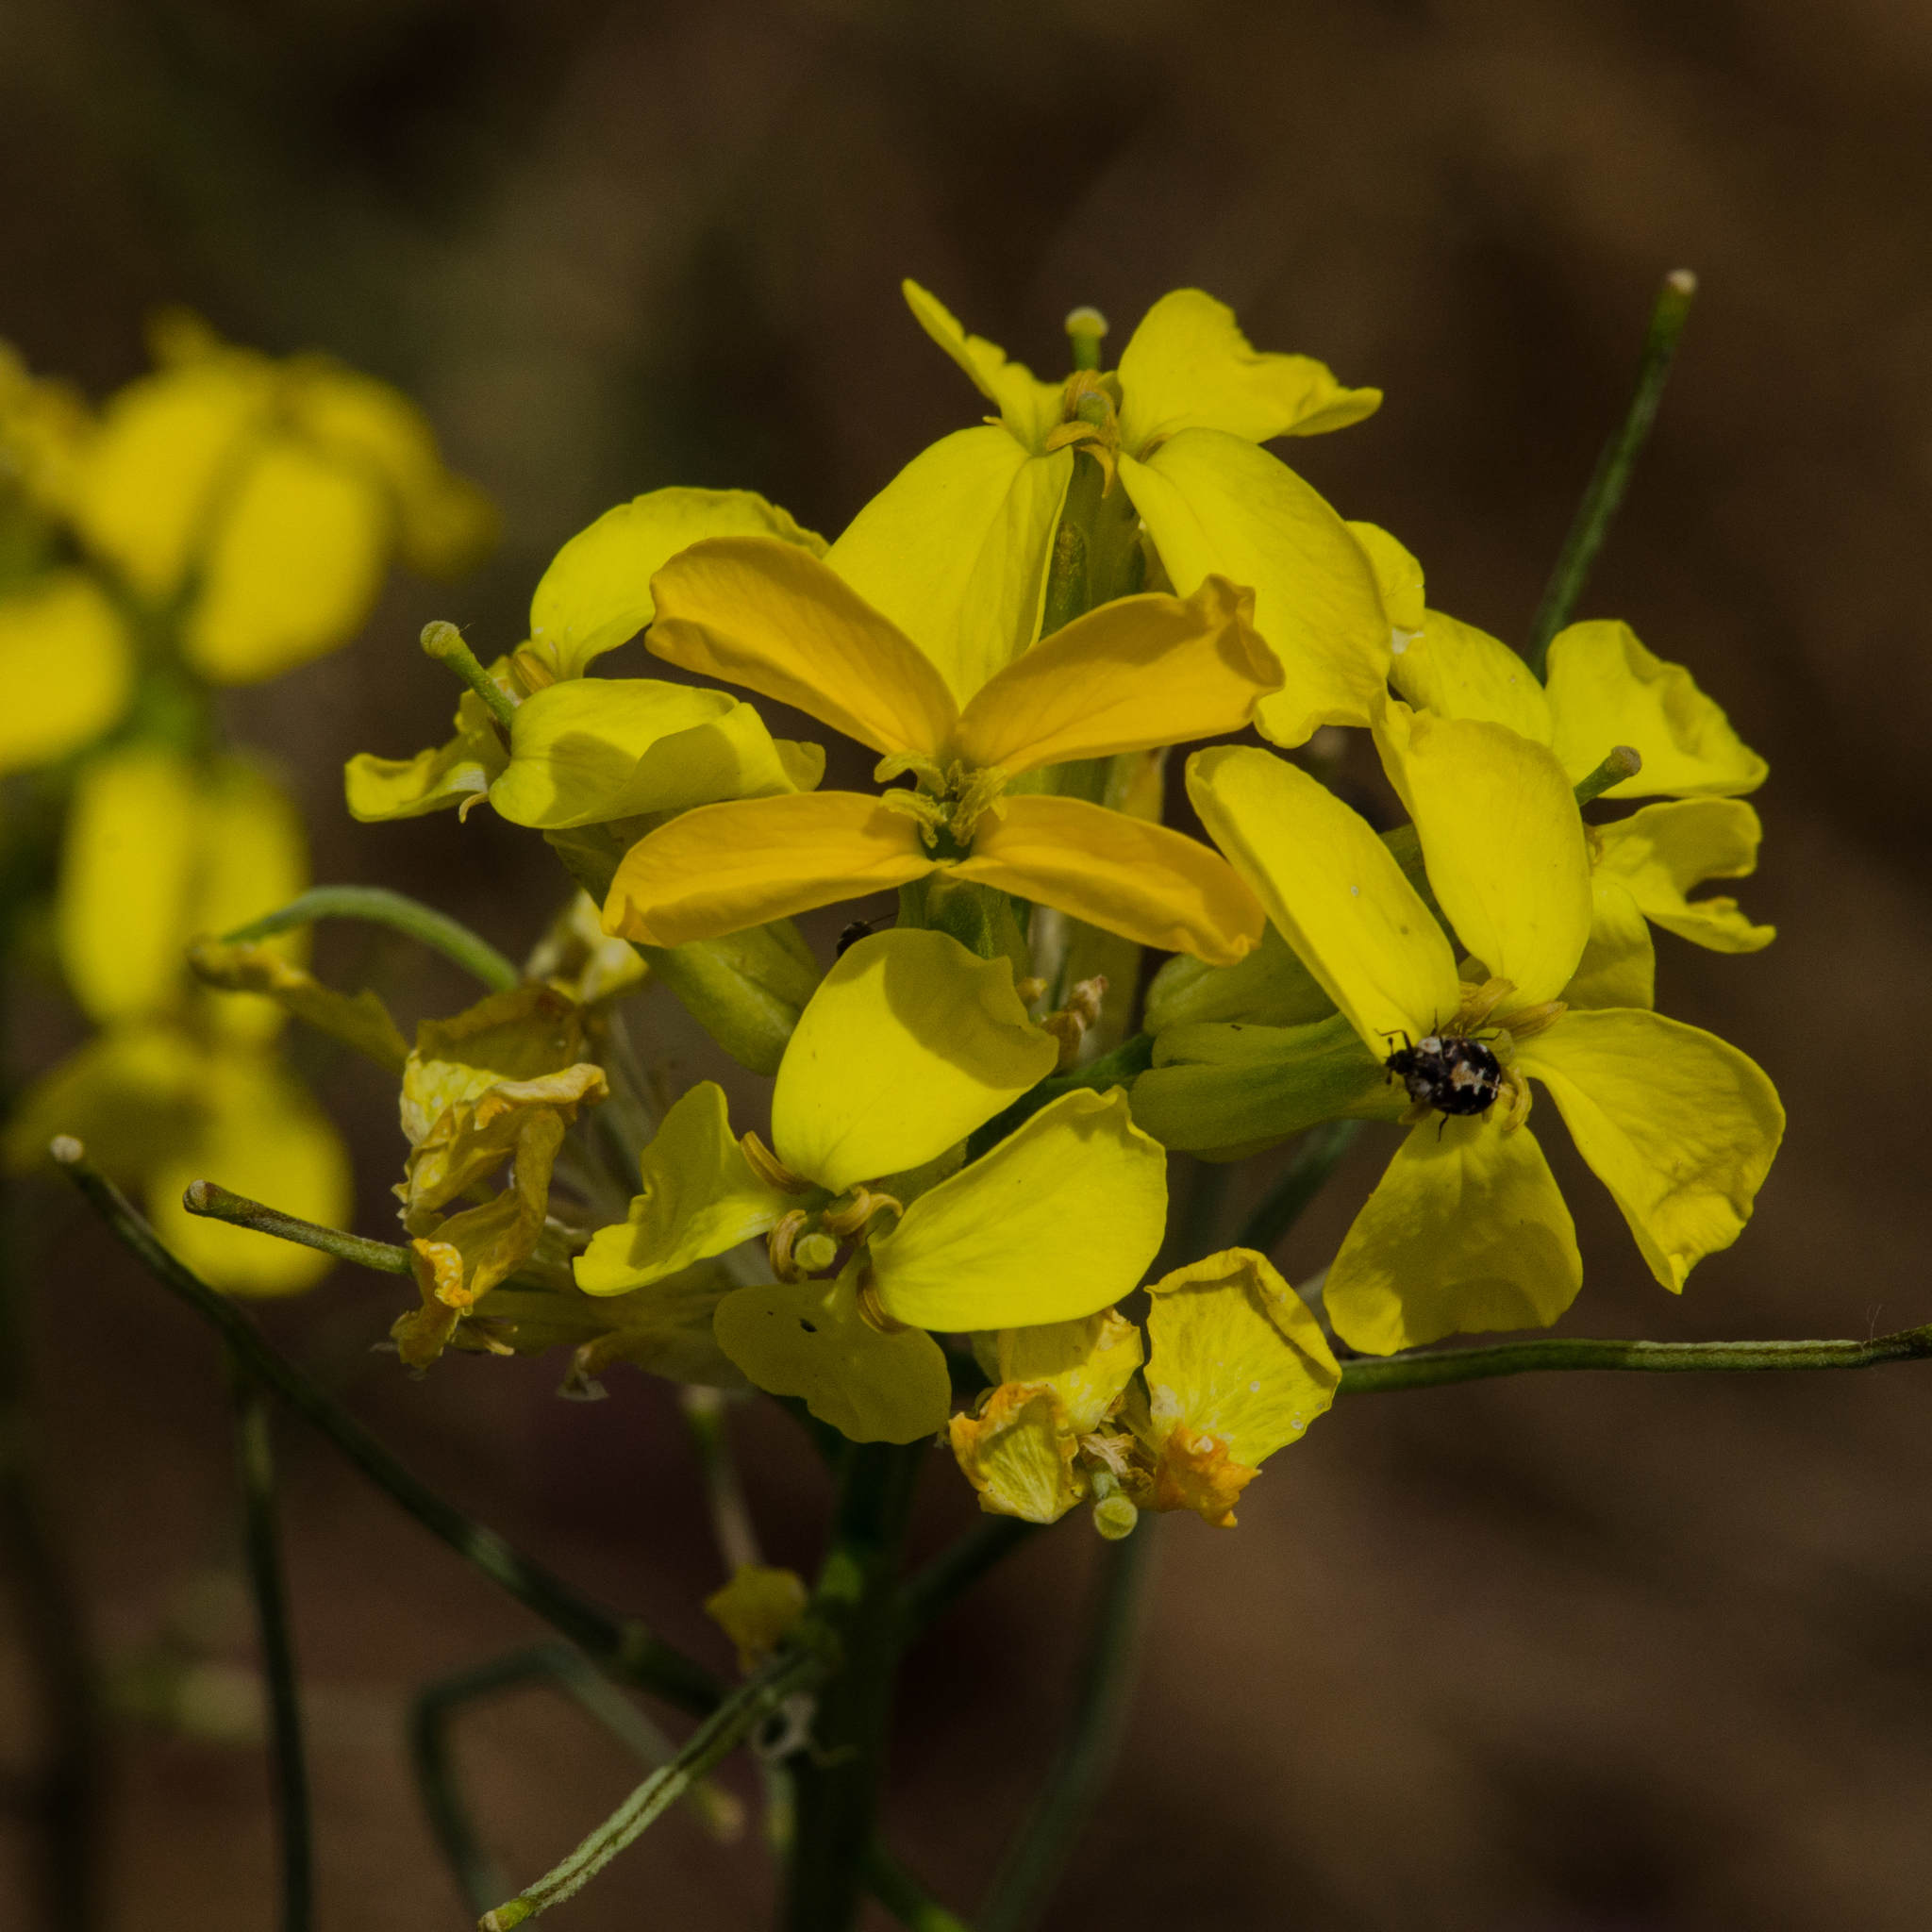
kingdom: Plantae
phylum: Tracheophyta
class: Magnoliopsida
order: Brassicales
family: Brassicaceae
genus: Erysimum
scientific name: Erysimum capitatum
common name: Western wallflower
